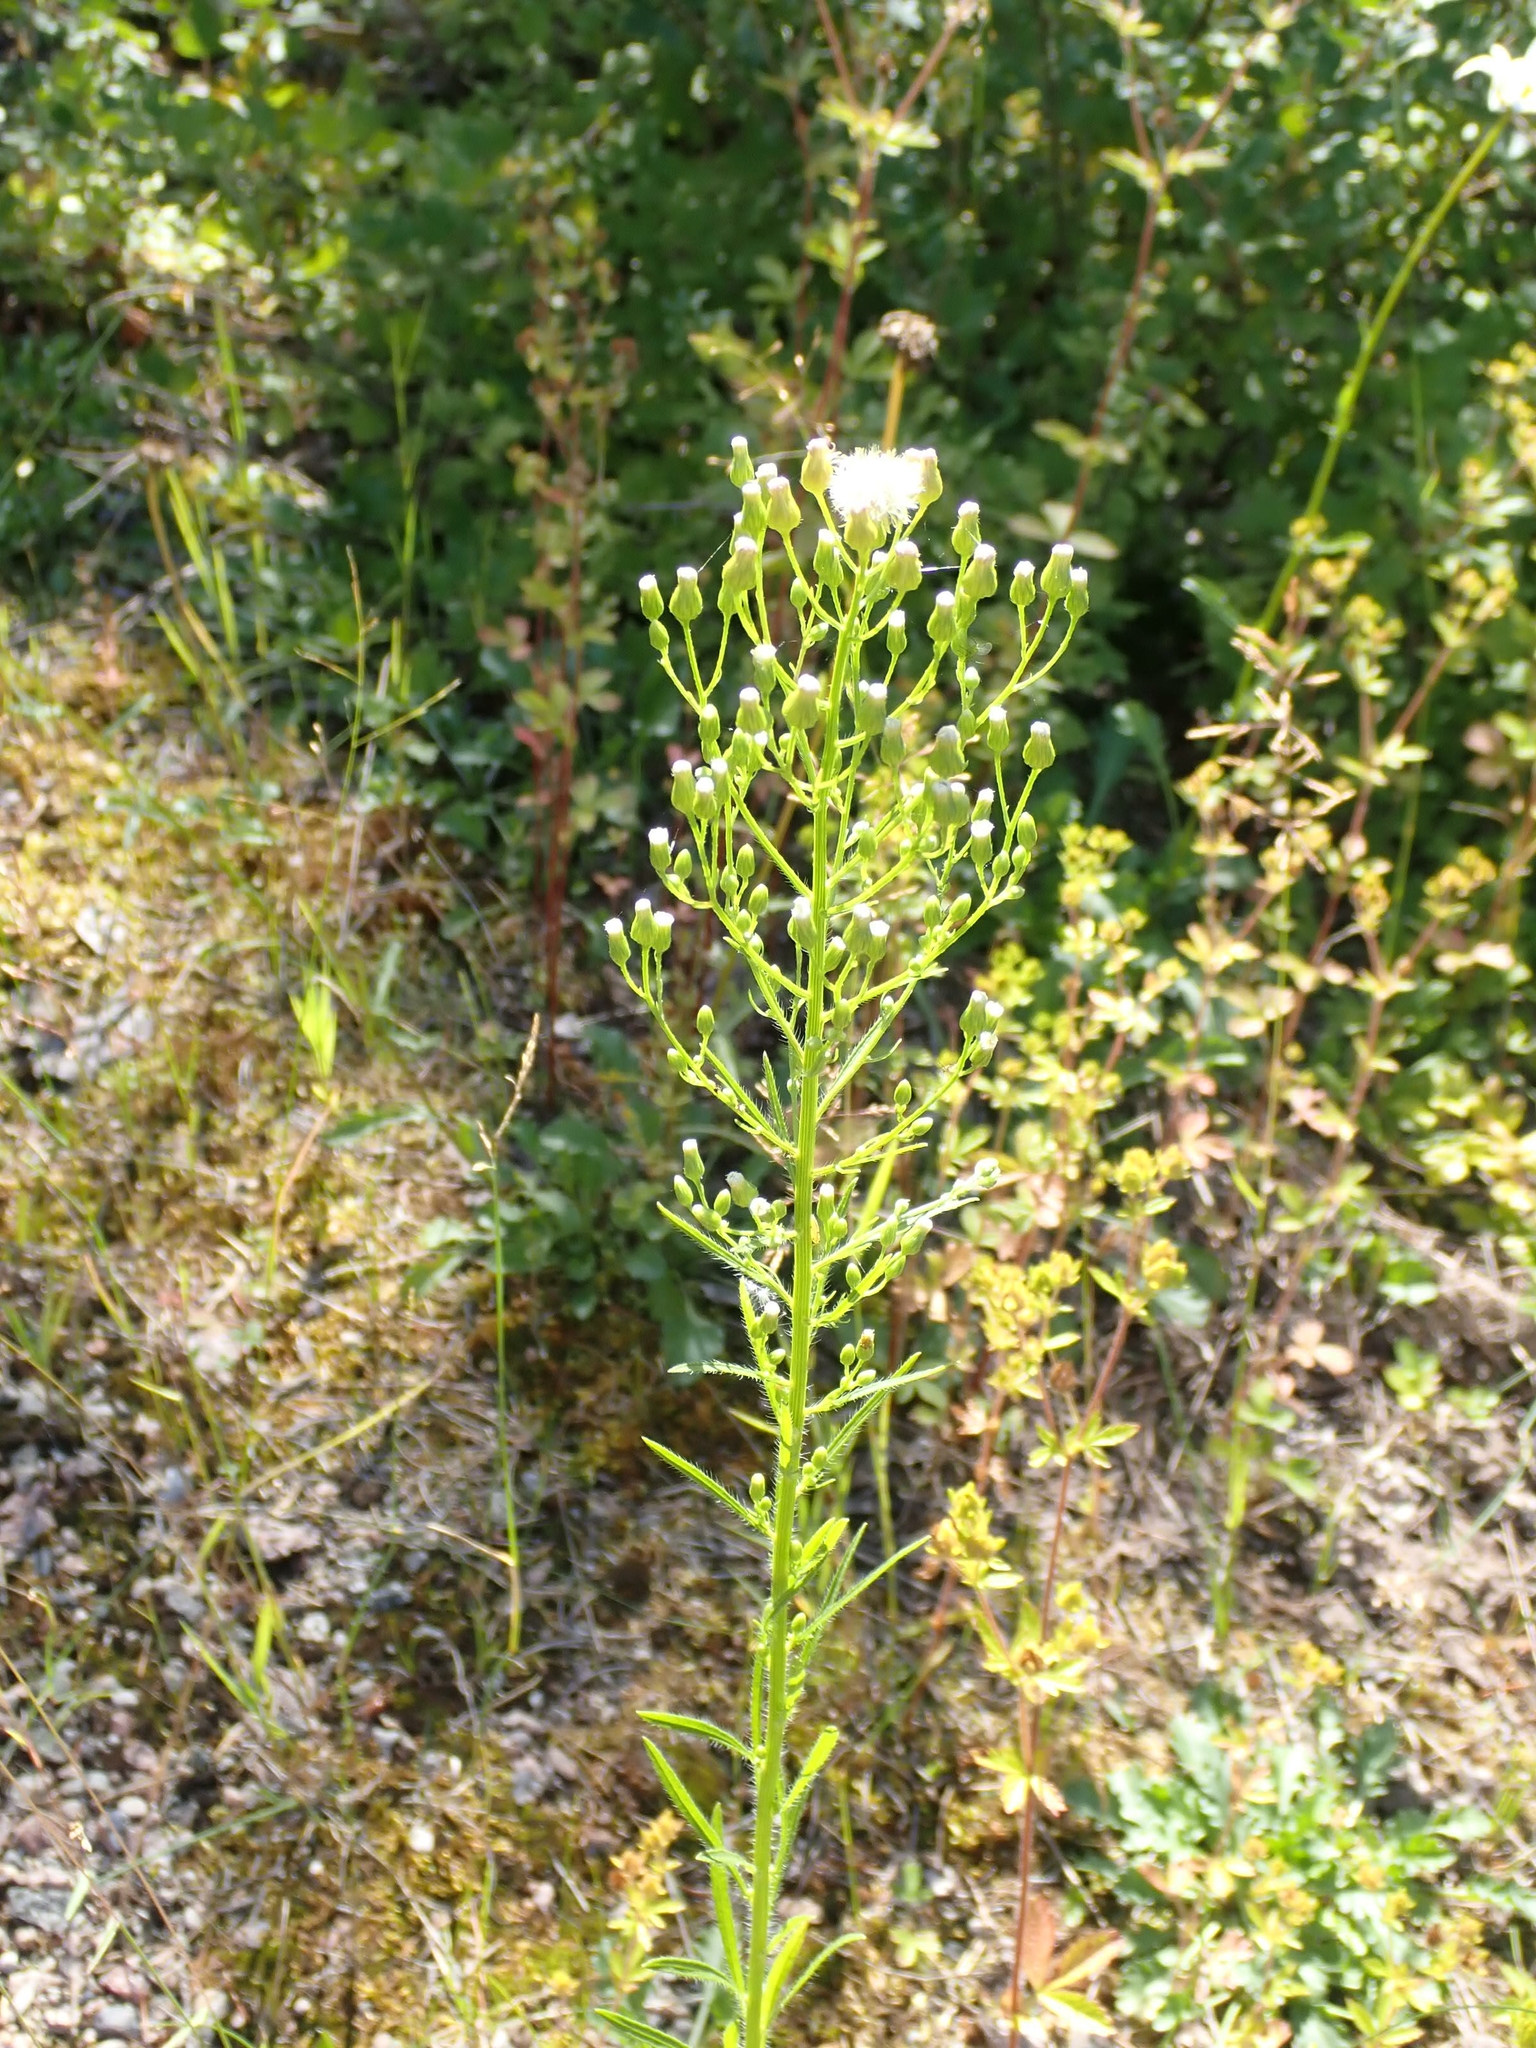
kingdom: Plantae
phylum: Tracheophyta
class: Magnoliopsida
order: Asterales
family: Asteraceae
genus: Erigeron
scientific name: Erigeron canadensis
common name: Canadian fleabane
